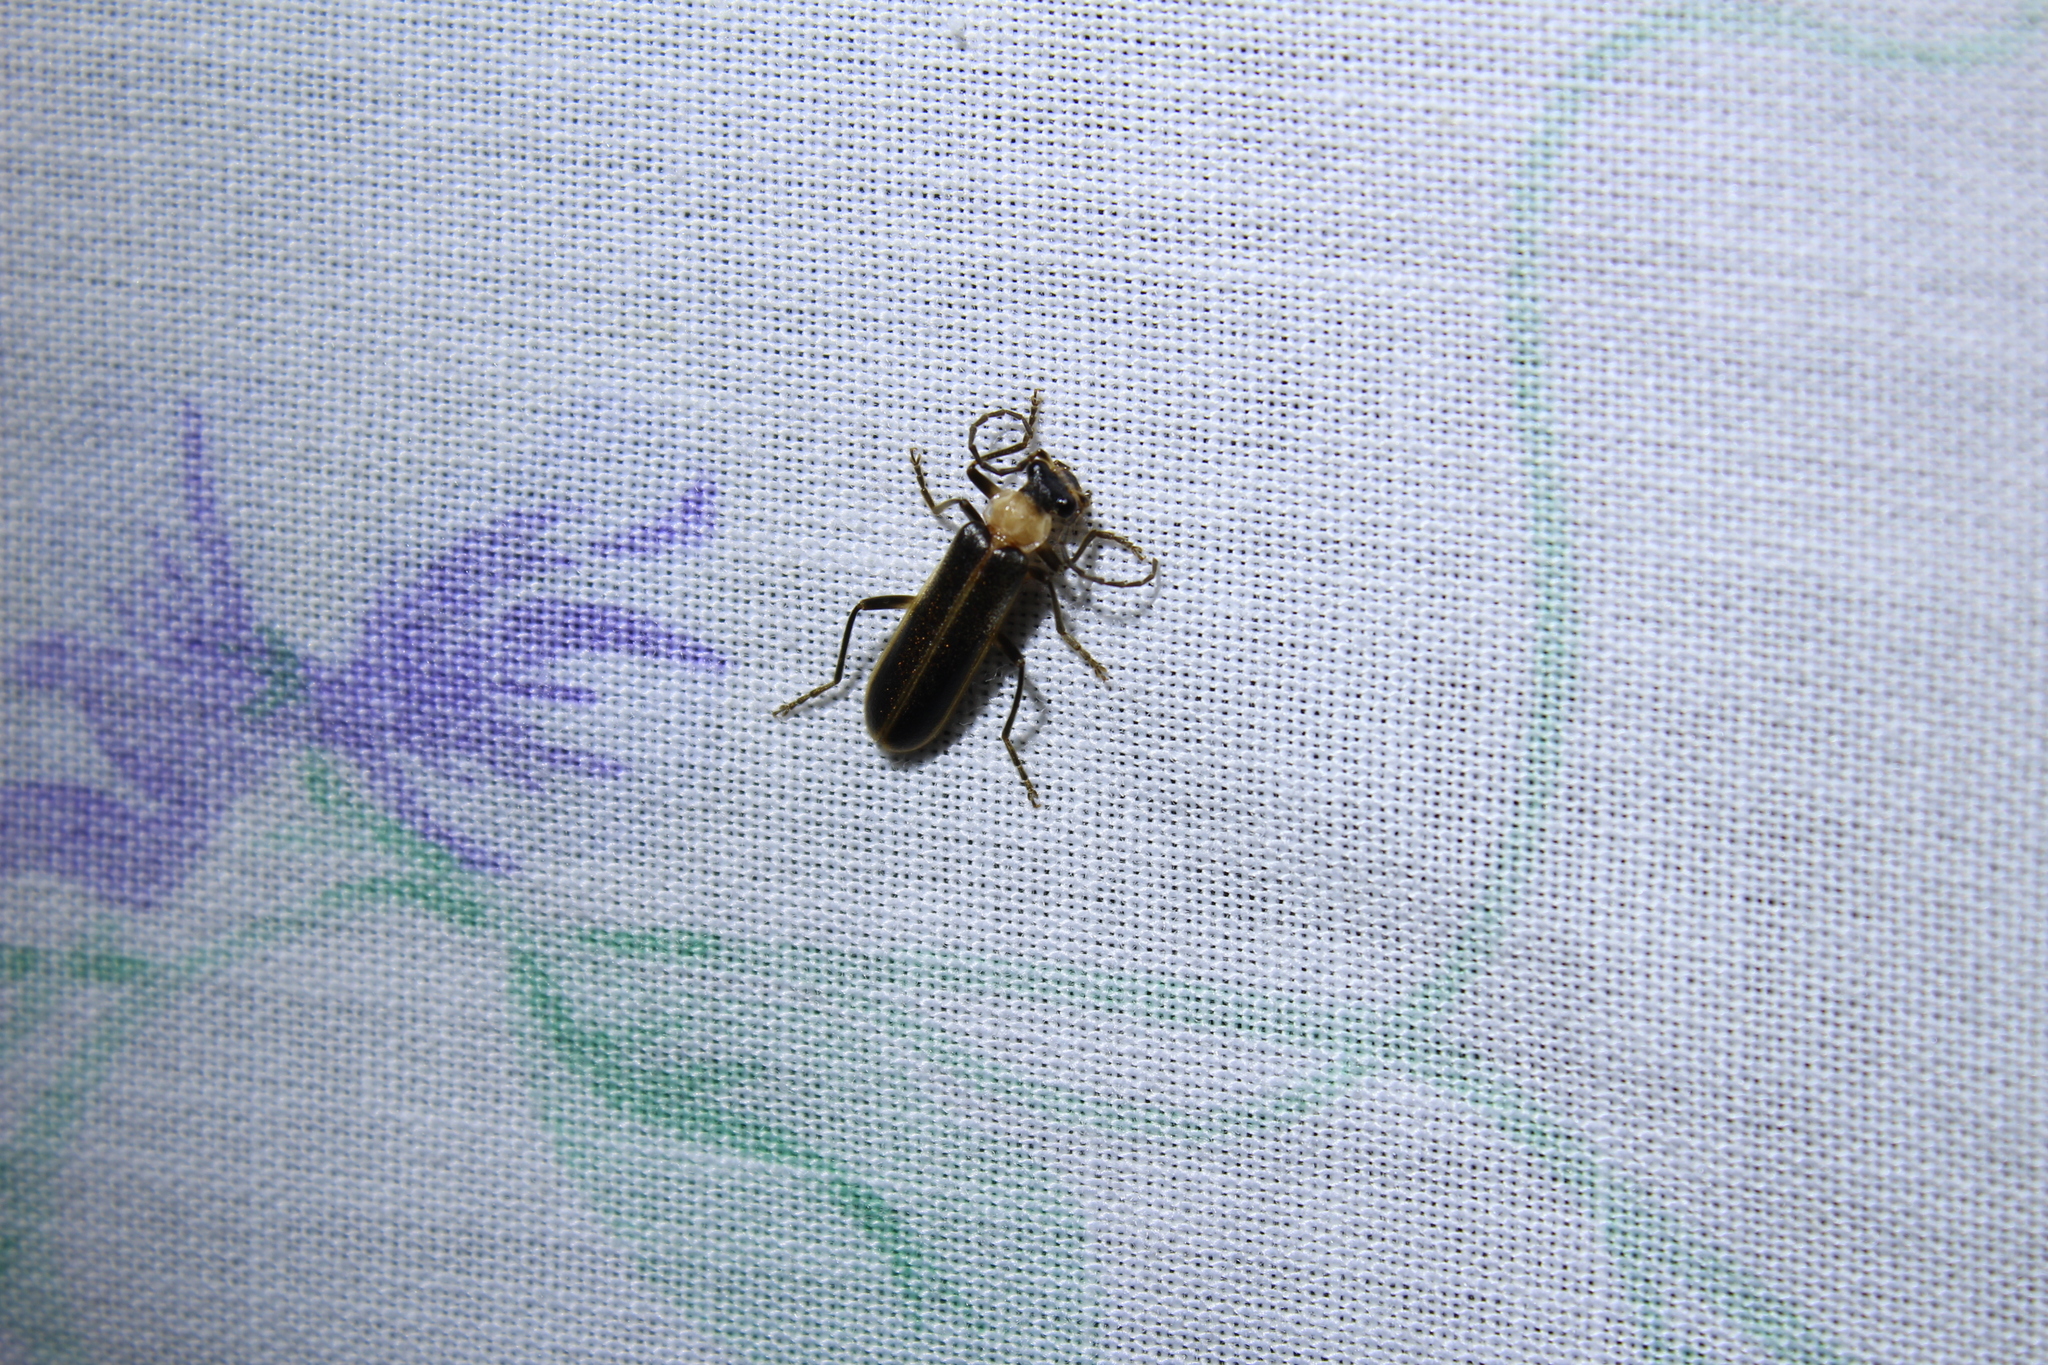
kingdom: Animalia
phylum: Arthropoda
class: Insecta
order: Coleoptera
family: Cantharidae
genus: Podabrus
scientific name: Podabrus flavicollis
